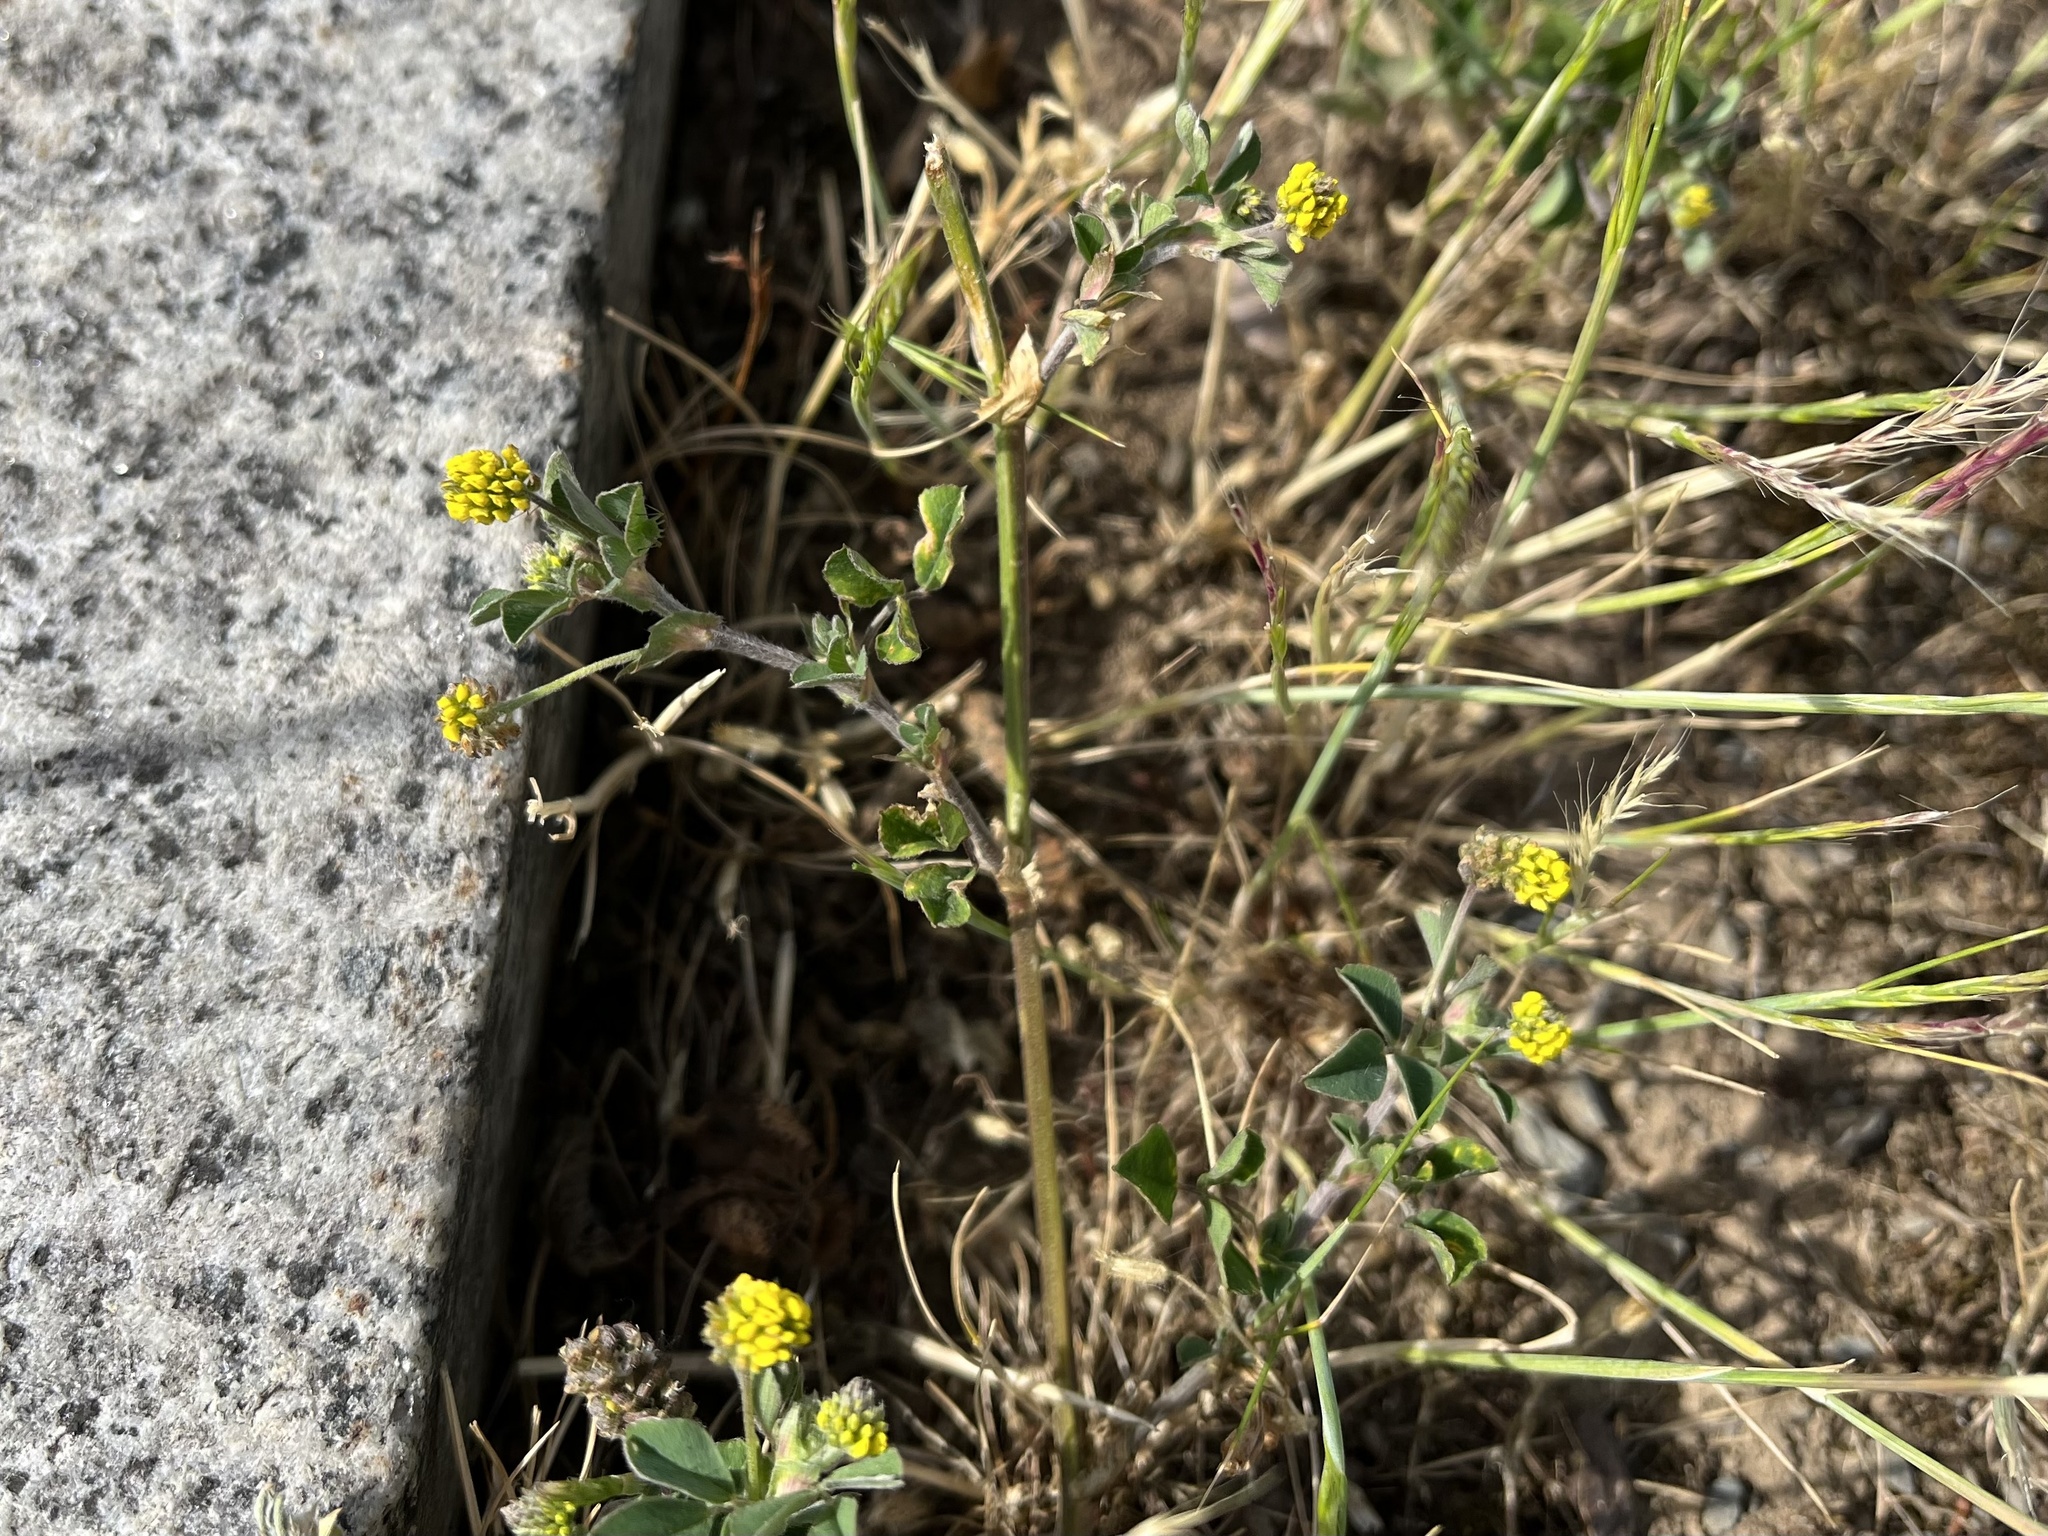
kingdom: Plantae
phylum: Tracheophyta
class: Magnoliopsida
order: Fabales
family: Fabaceae
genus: Medicago
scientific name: Medicago lupulina
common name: Black medick
